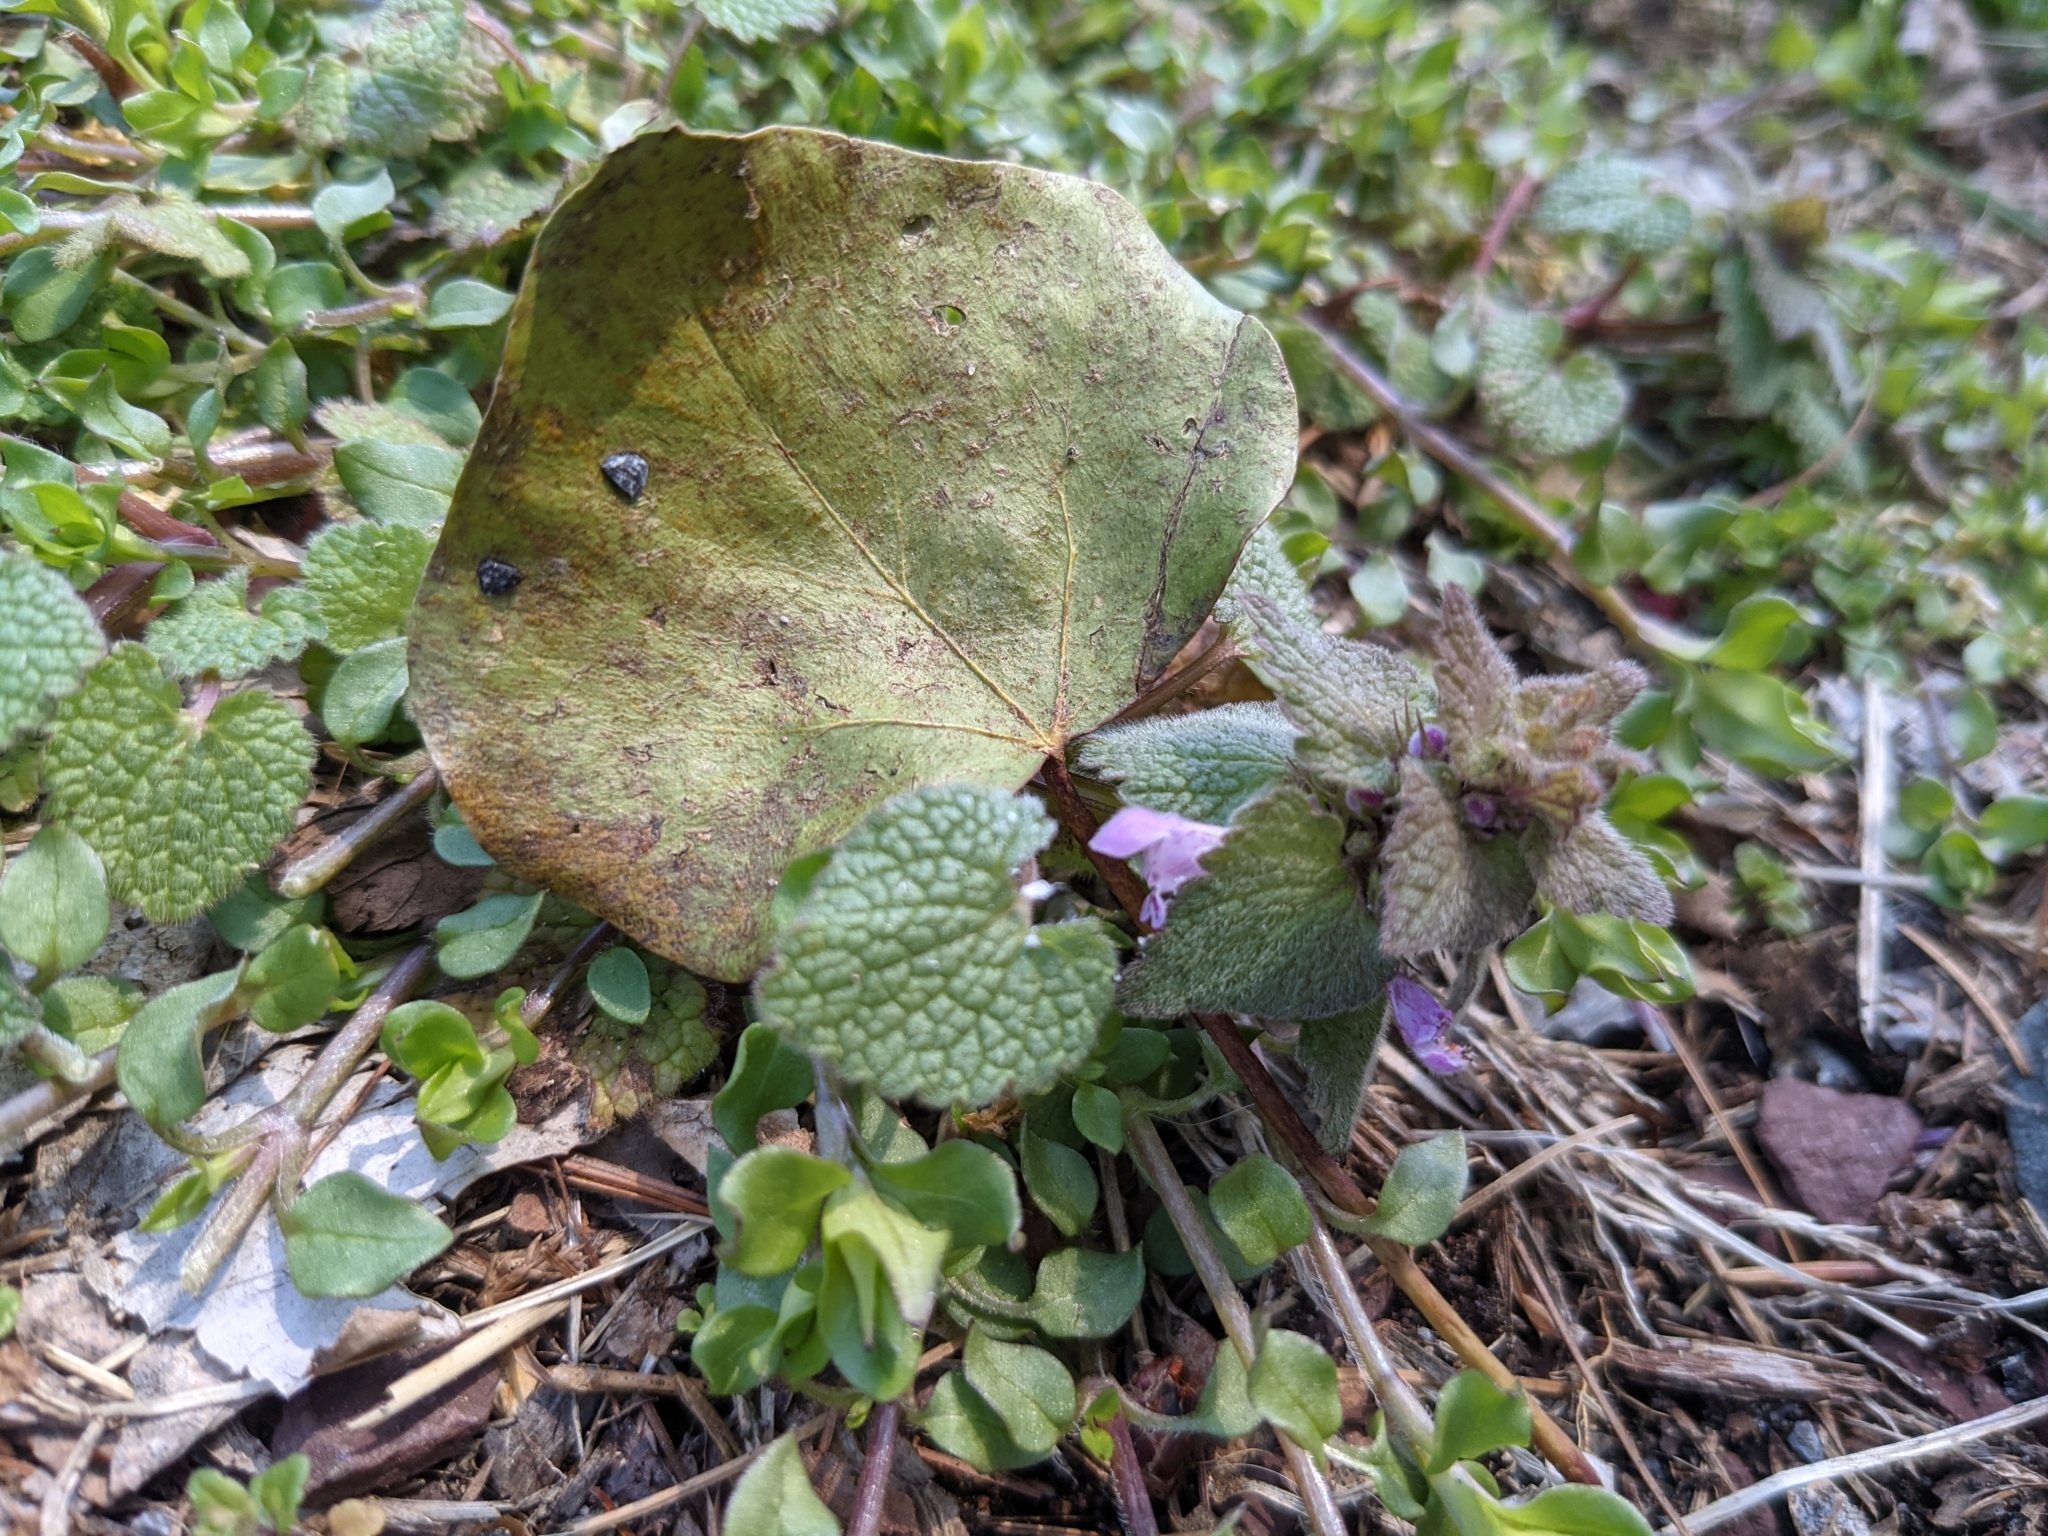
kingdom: Plantae
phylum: Tracheophyta
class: Magnoliopsida
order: Lamiales
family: Lamiaceae
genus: Lamium
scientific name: Lamium purpureum
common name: Red dead-nettle
